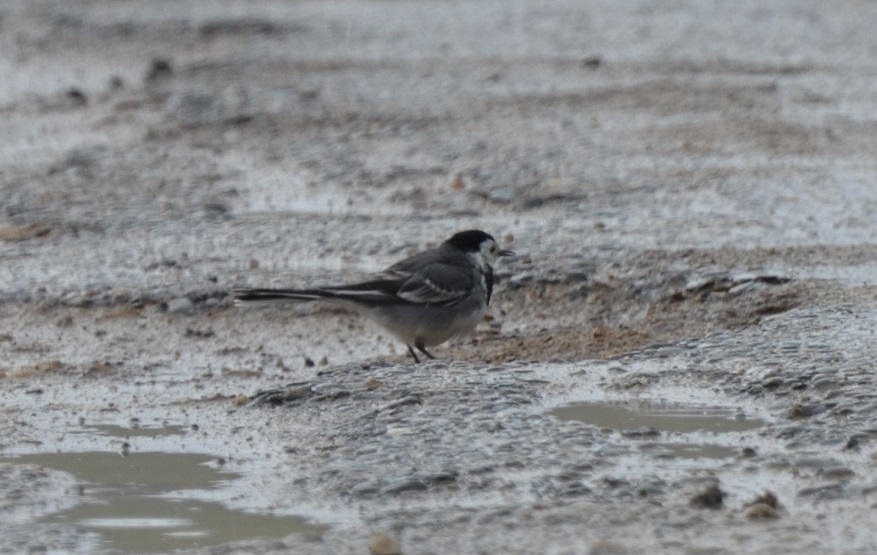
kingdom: Animalia
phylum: Chordata
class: Aves
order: Passeriformes
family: Motacillidae
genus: Motacilla
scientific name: Motacilla alba
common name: White wagtail
